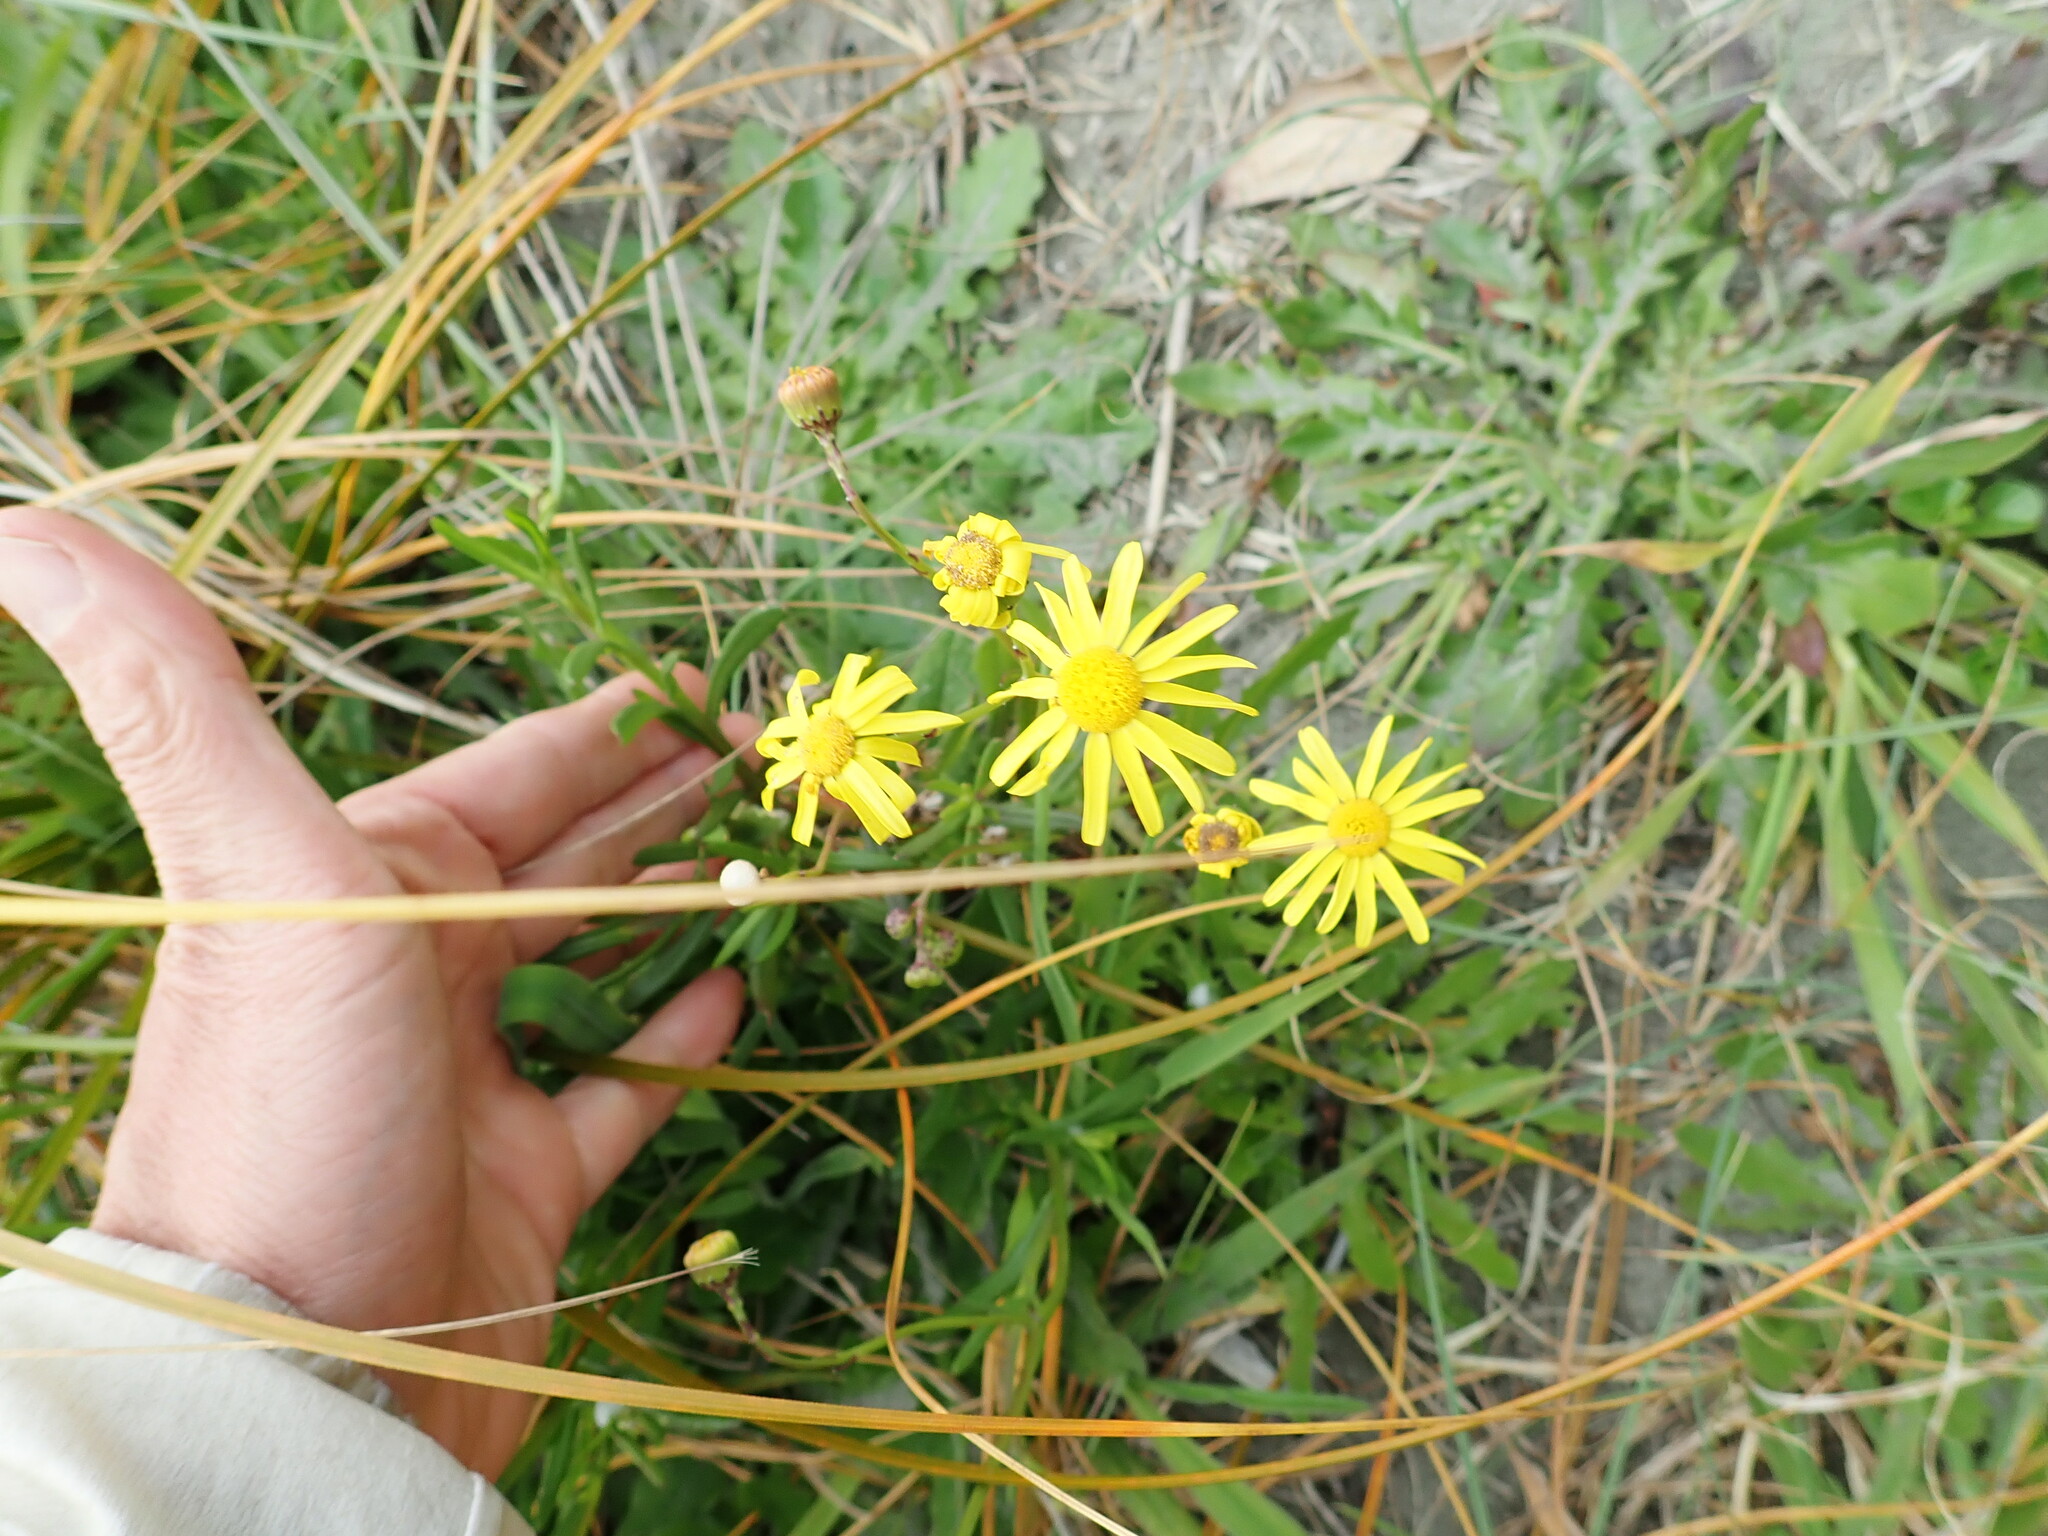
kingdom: Plantae
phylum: Tracheophyta
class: Magnoliopsida
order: Asterales
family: Asteraceae
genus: Senecio
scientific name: Senecio skirrhodon
